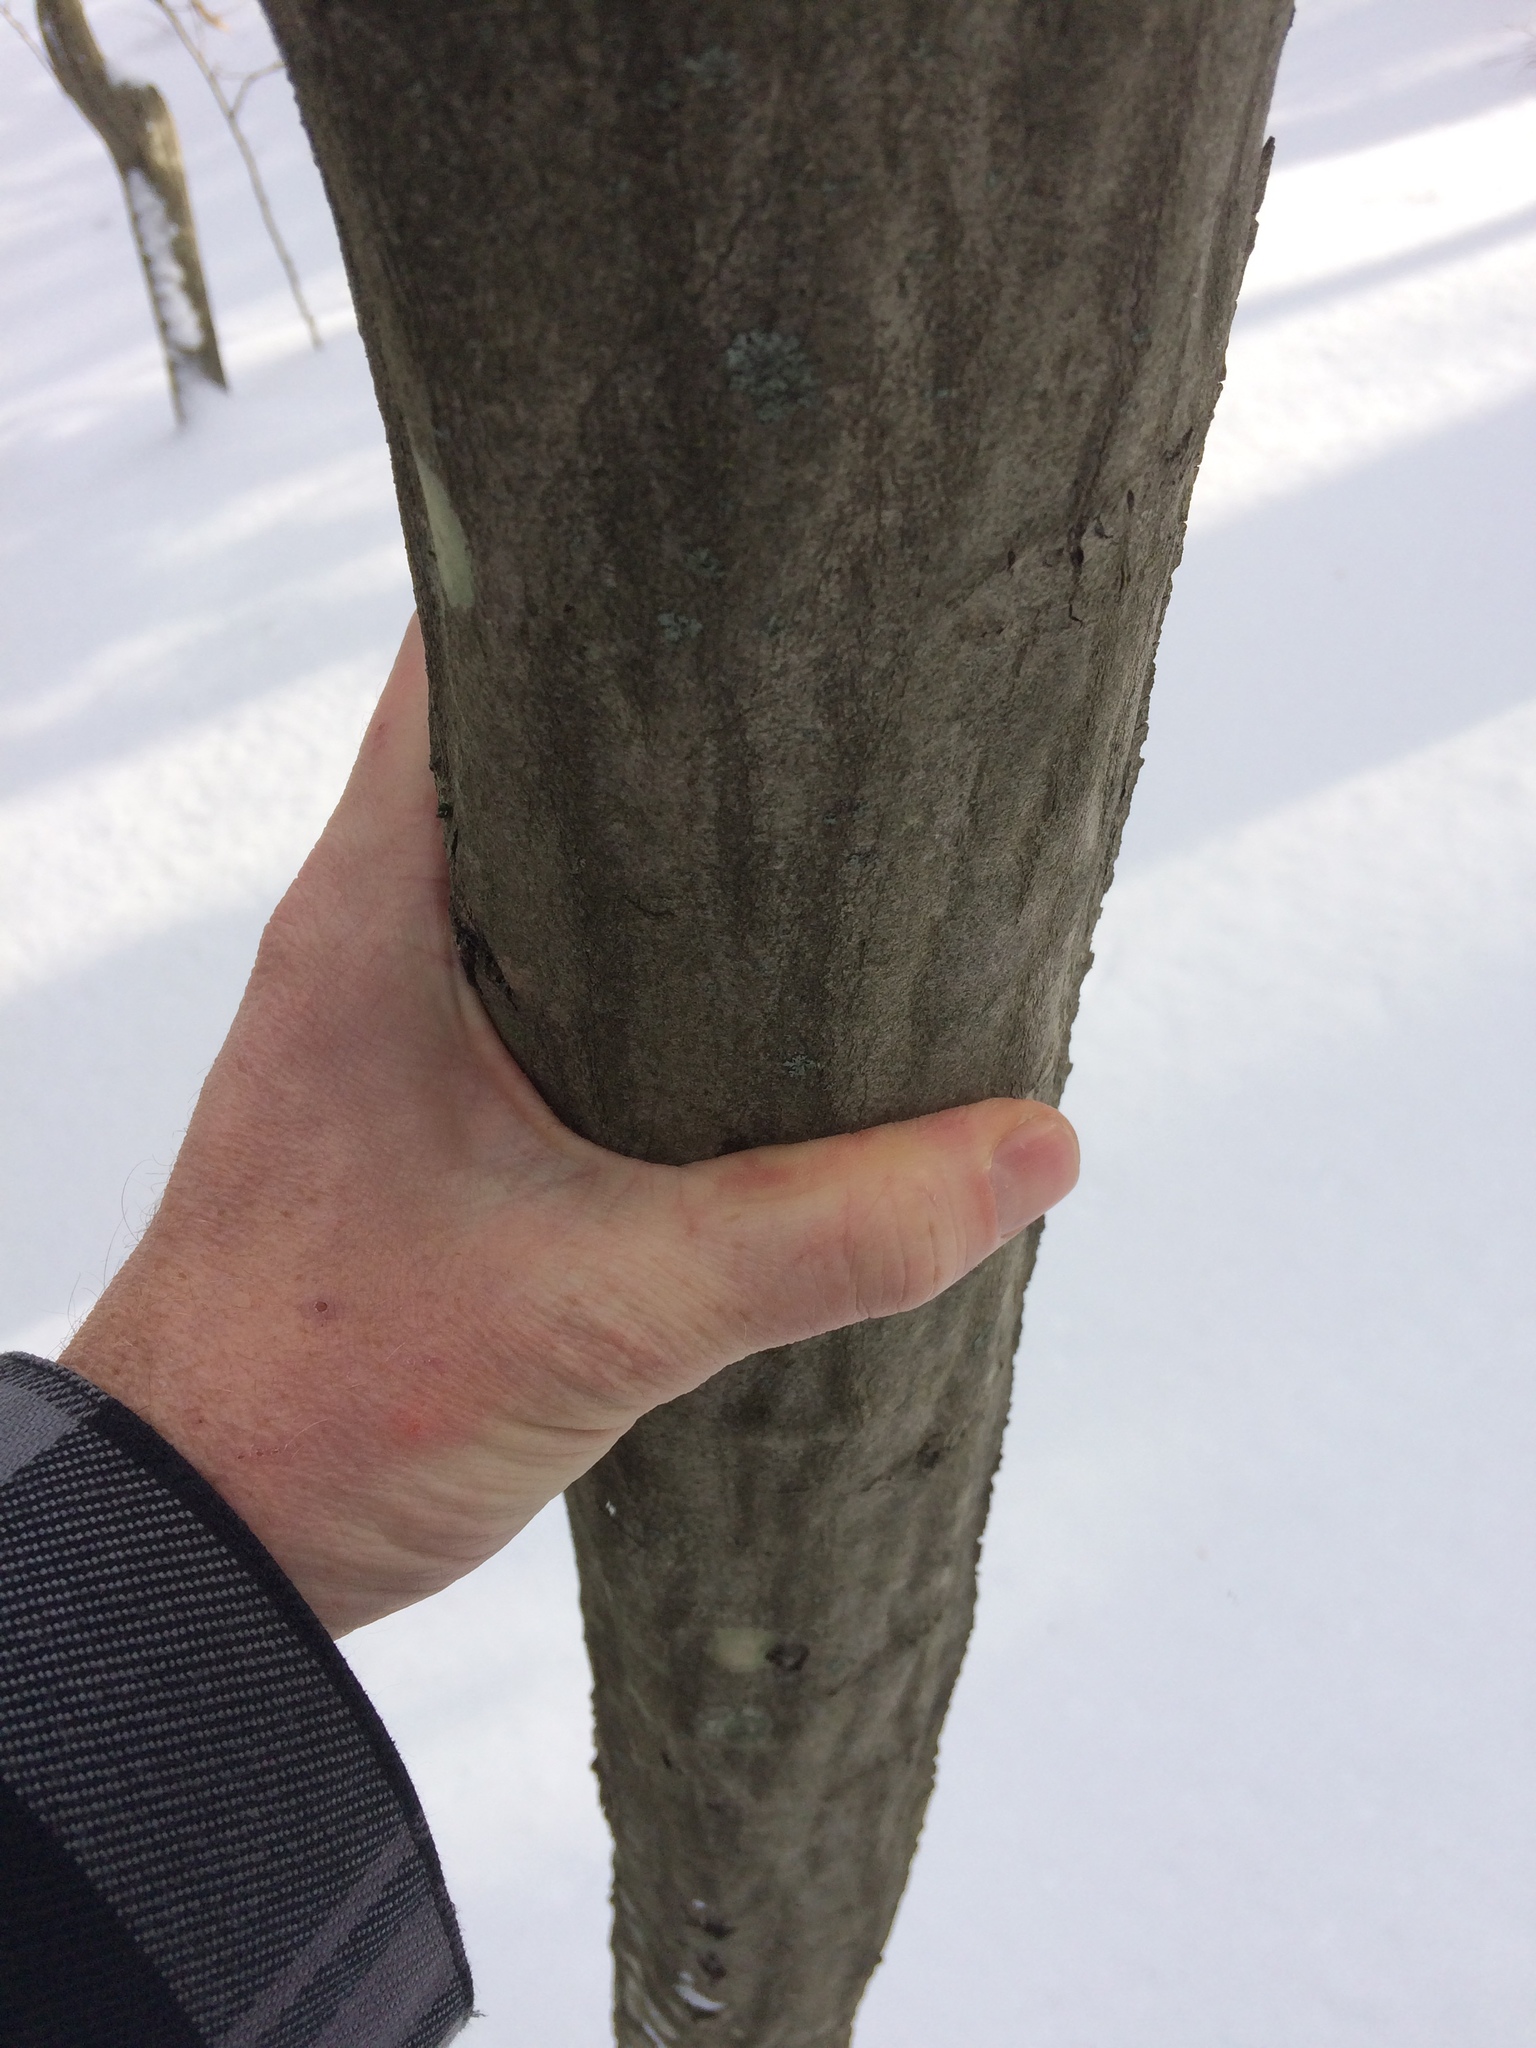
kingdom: Plantae
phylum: Tracheophyta
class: Magnoliopsida
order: Fagales
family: Betulaceae
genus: Carpinus
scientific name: Carpinus caroliniana
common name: American hornbeam
